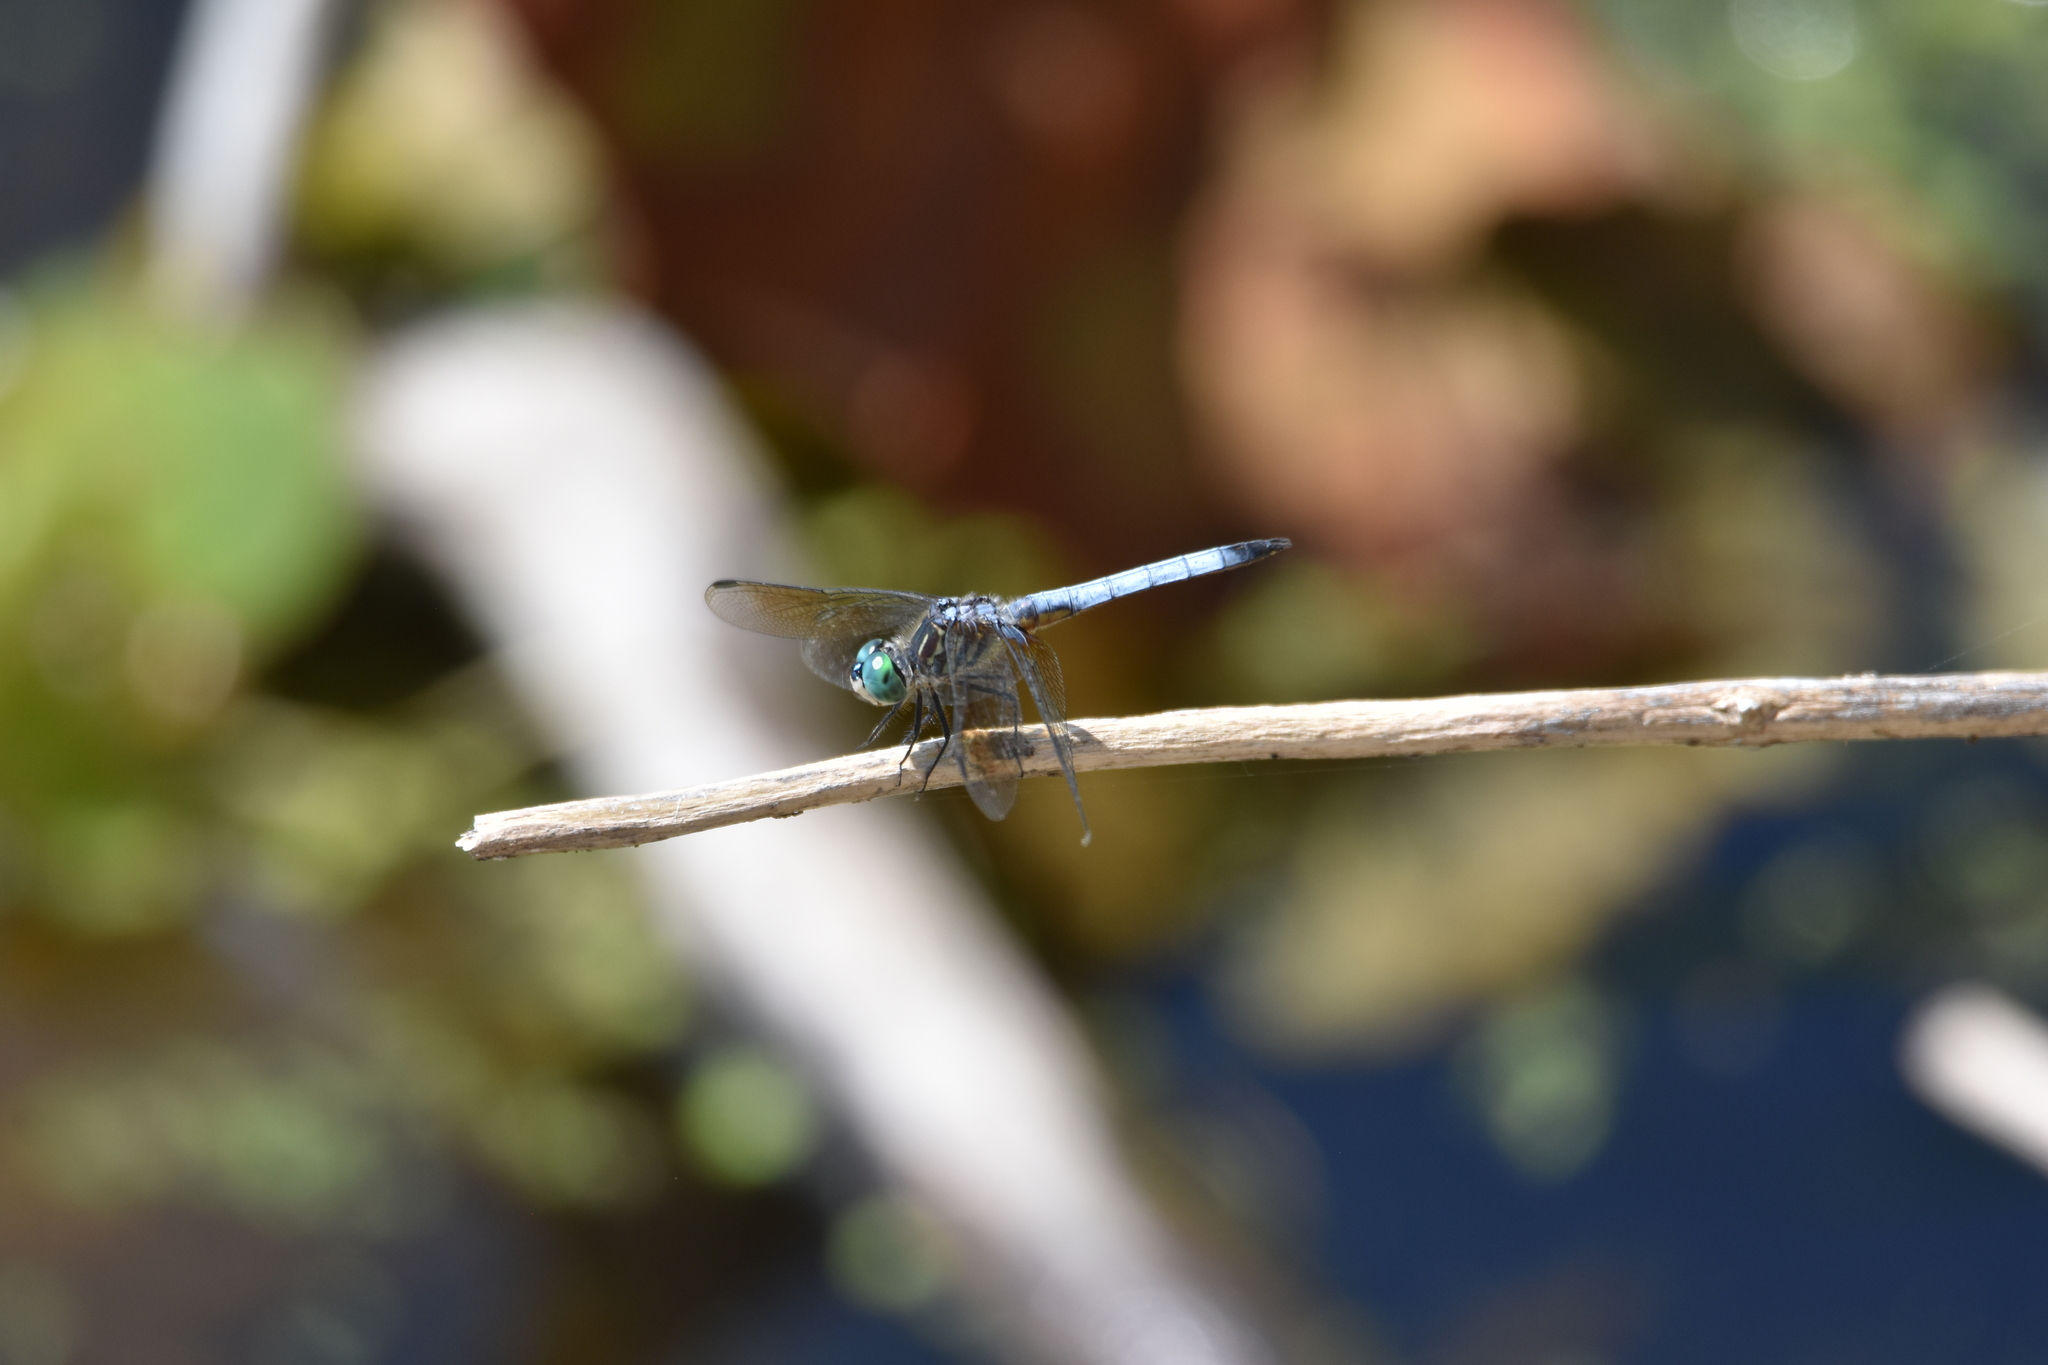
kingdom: Animalia
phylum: Arthropoda
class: Insecta
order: Odonata
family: Libellulidae
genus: Pachydiplax
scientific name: Pachydiplax longipennis
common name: Blue dasher
